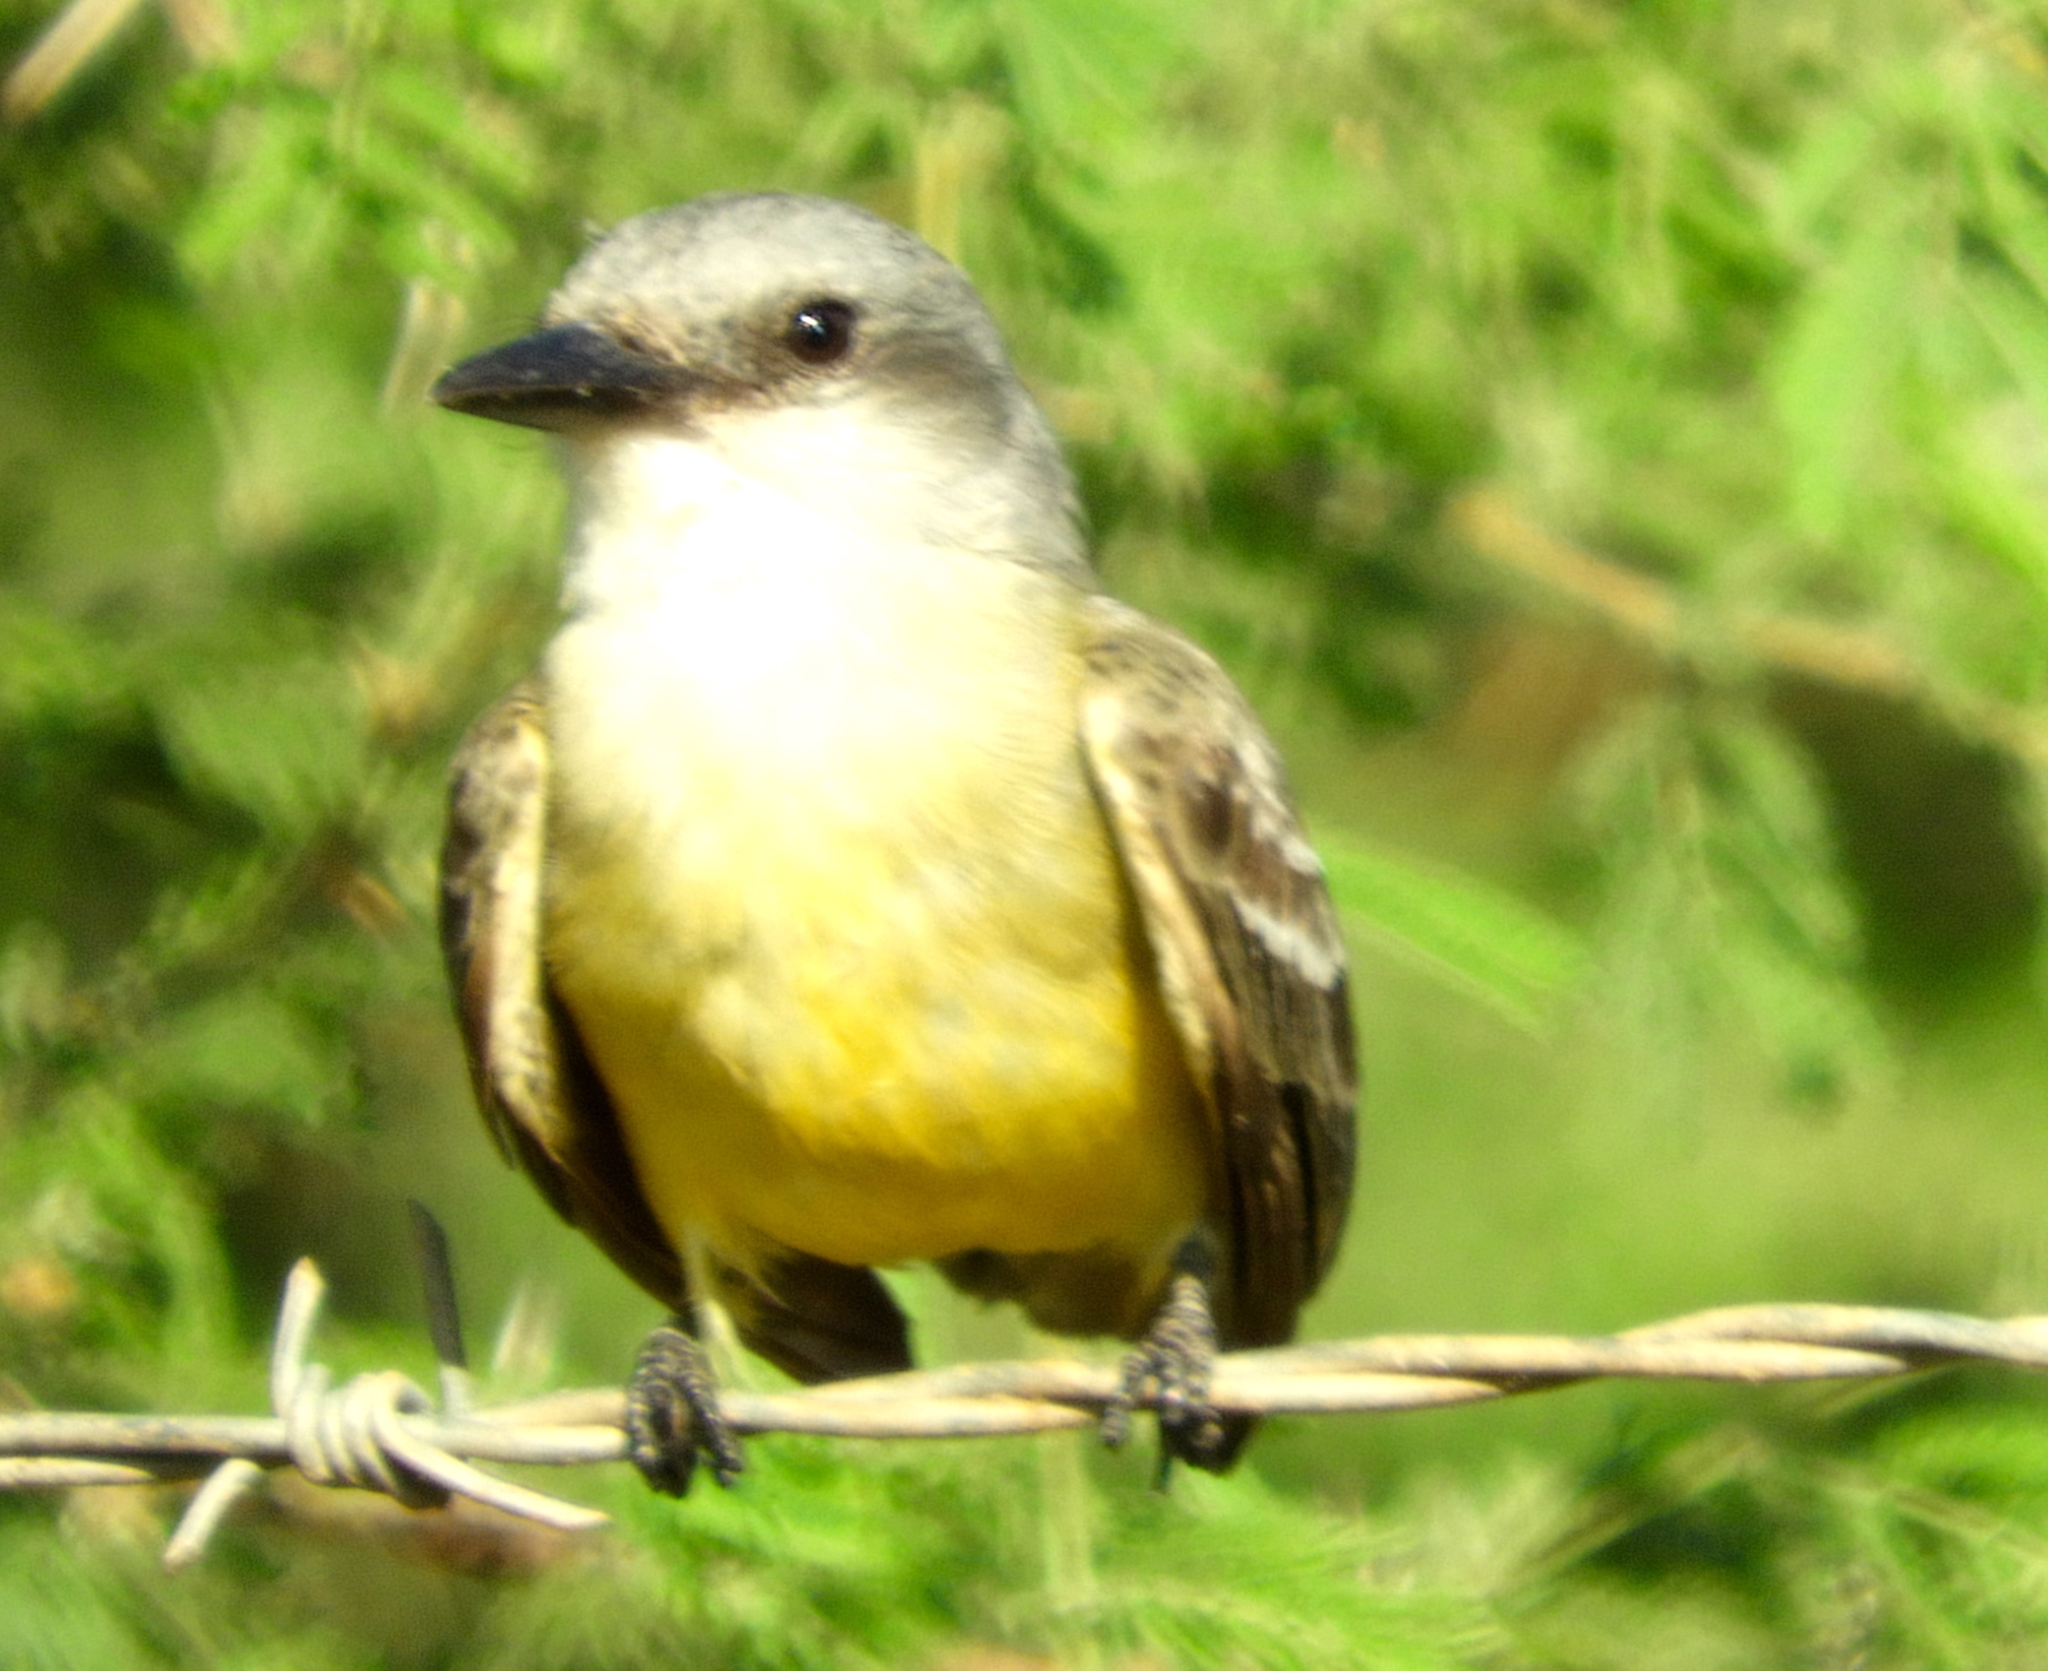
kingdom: Animalia
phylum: Chordata
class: Aves
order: Passeriformes
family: Tyrannidae
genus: Tyrannus
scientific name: Tyrannus melancholicus
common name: Tropical kingbird
